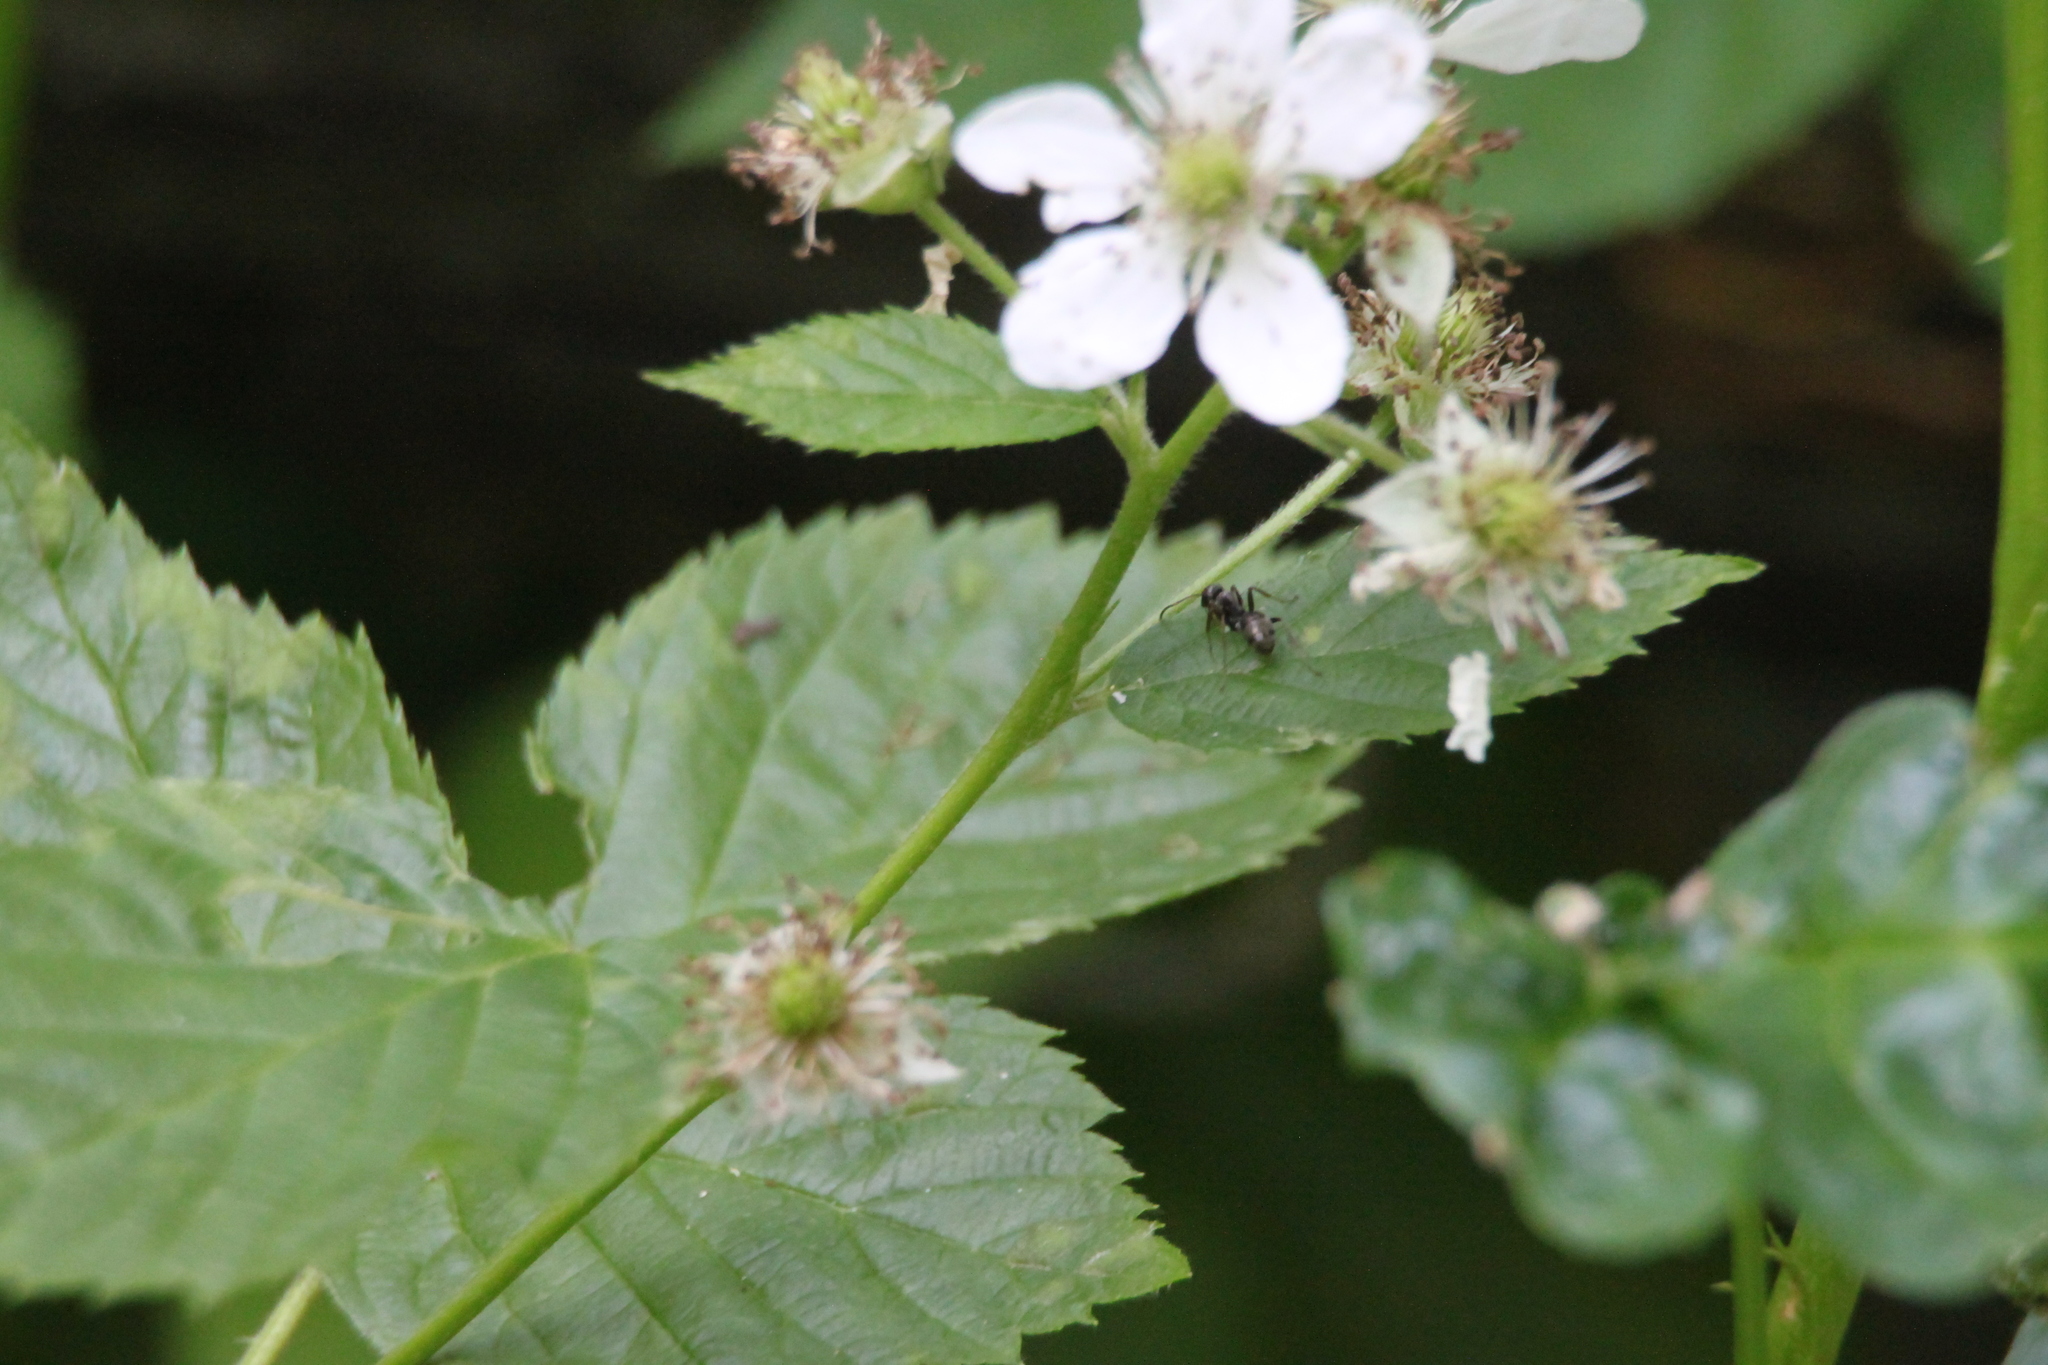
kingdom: Plantae
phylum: Tracheophyta
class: Magnoliopsida
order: Rosales
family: Rosaceae
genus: Rubus
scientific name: Rubus polonicus
